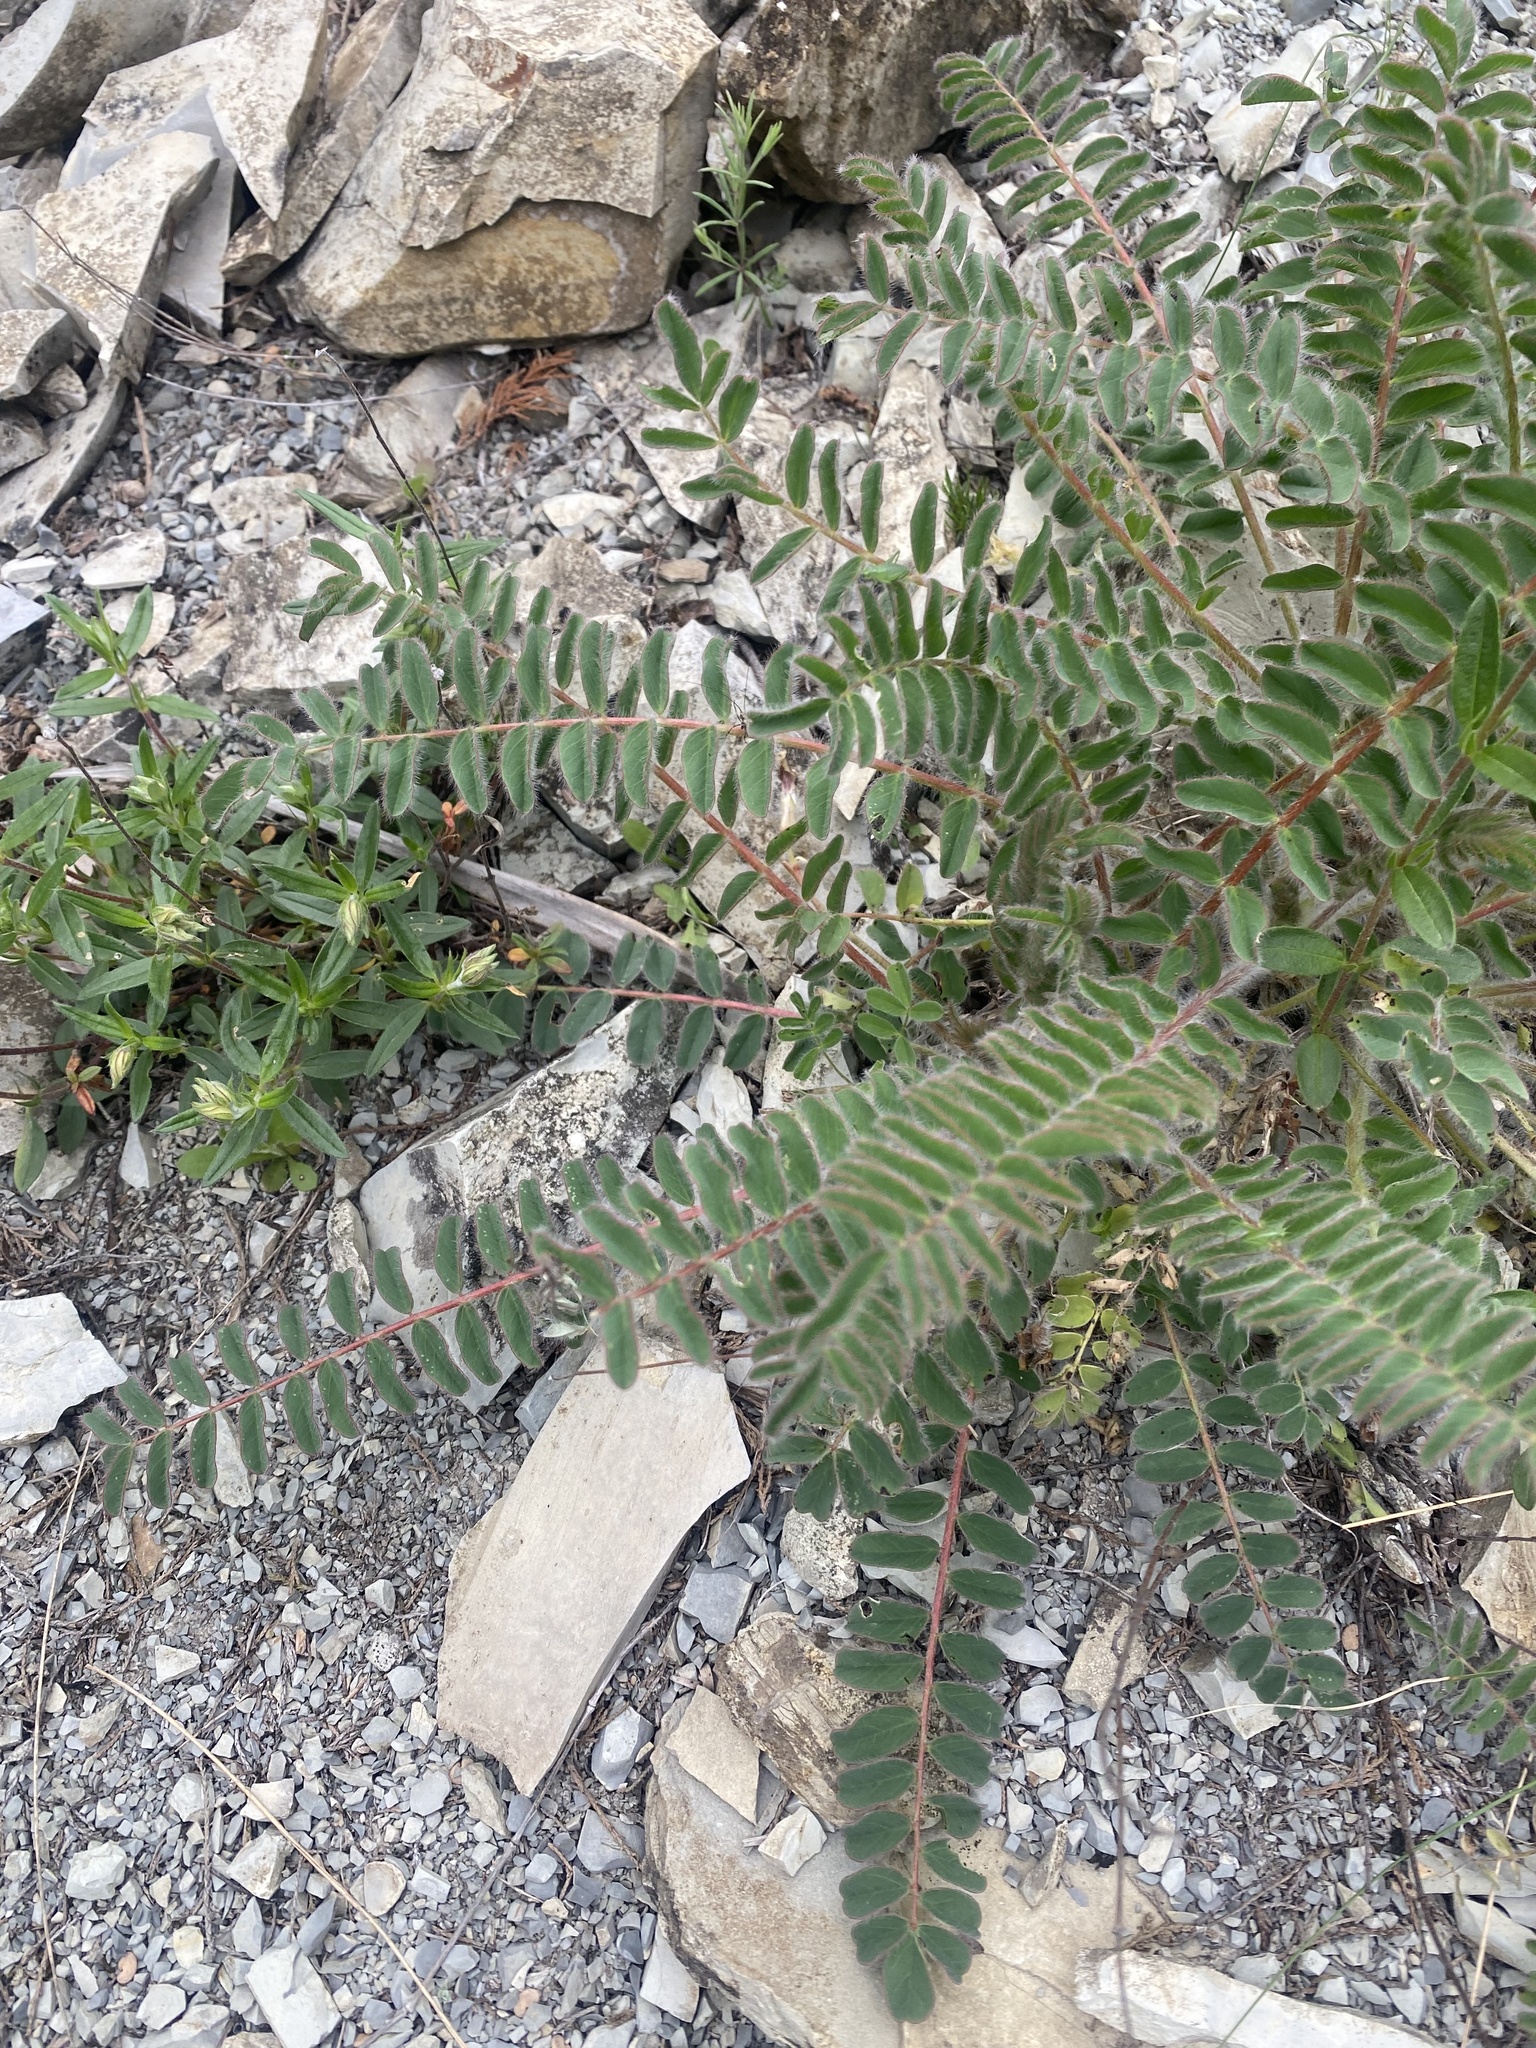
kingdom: Plantae
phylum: Tracheophyta
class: Magnoliopsida
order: Fabales
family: Fabaceae
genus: Astragalus
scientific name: Astragalus utriger
